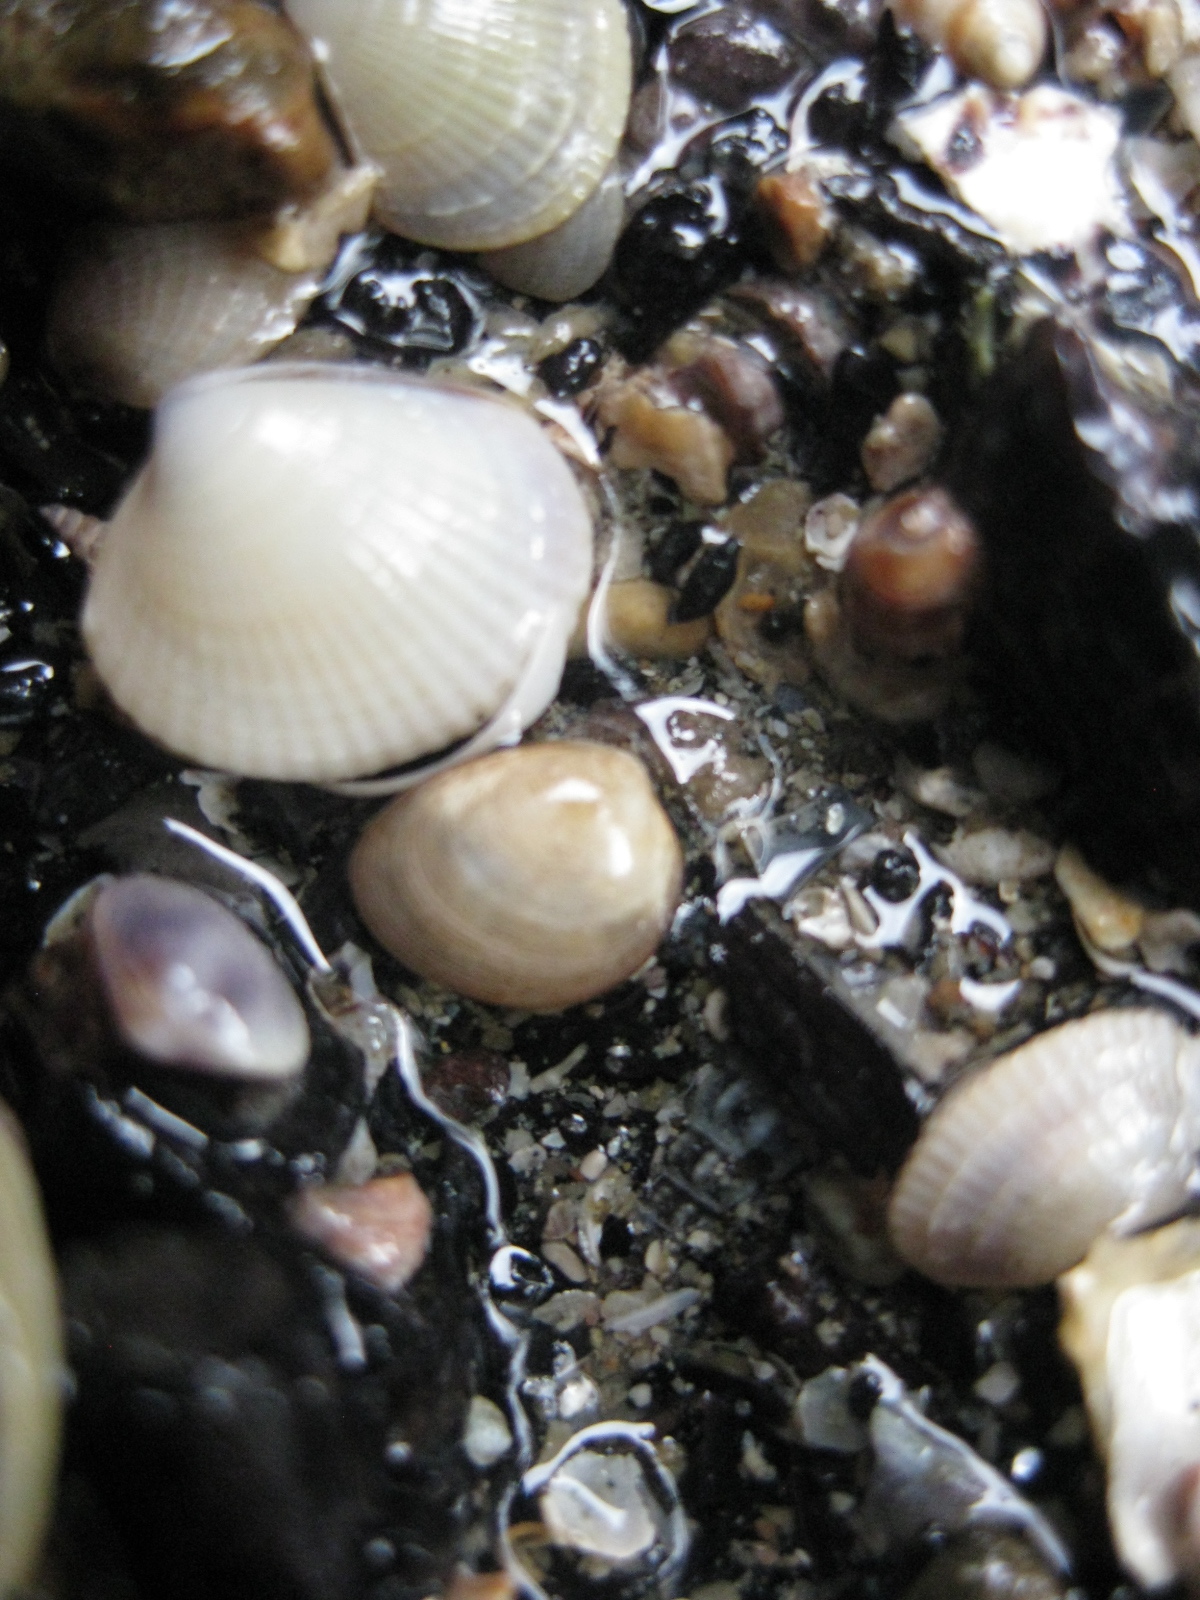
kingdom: Animalia
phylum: Mollusca
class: Bivalvia
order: Nuculida
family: Nuculidae
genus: Linucula
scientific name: Linucula hartvigiana
